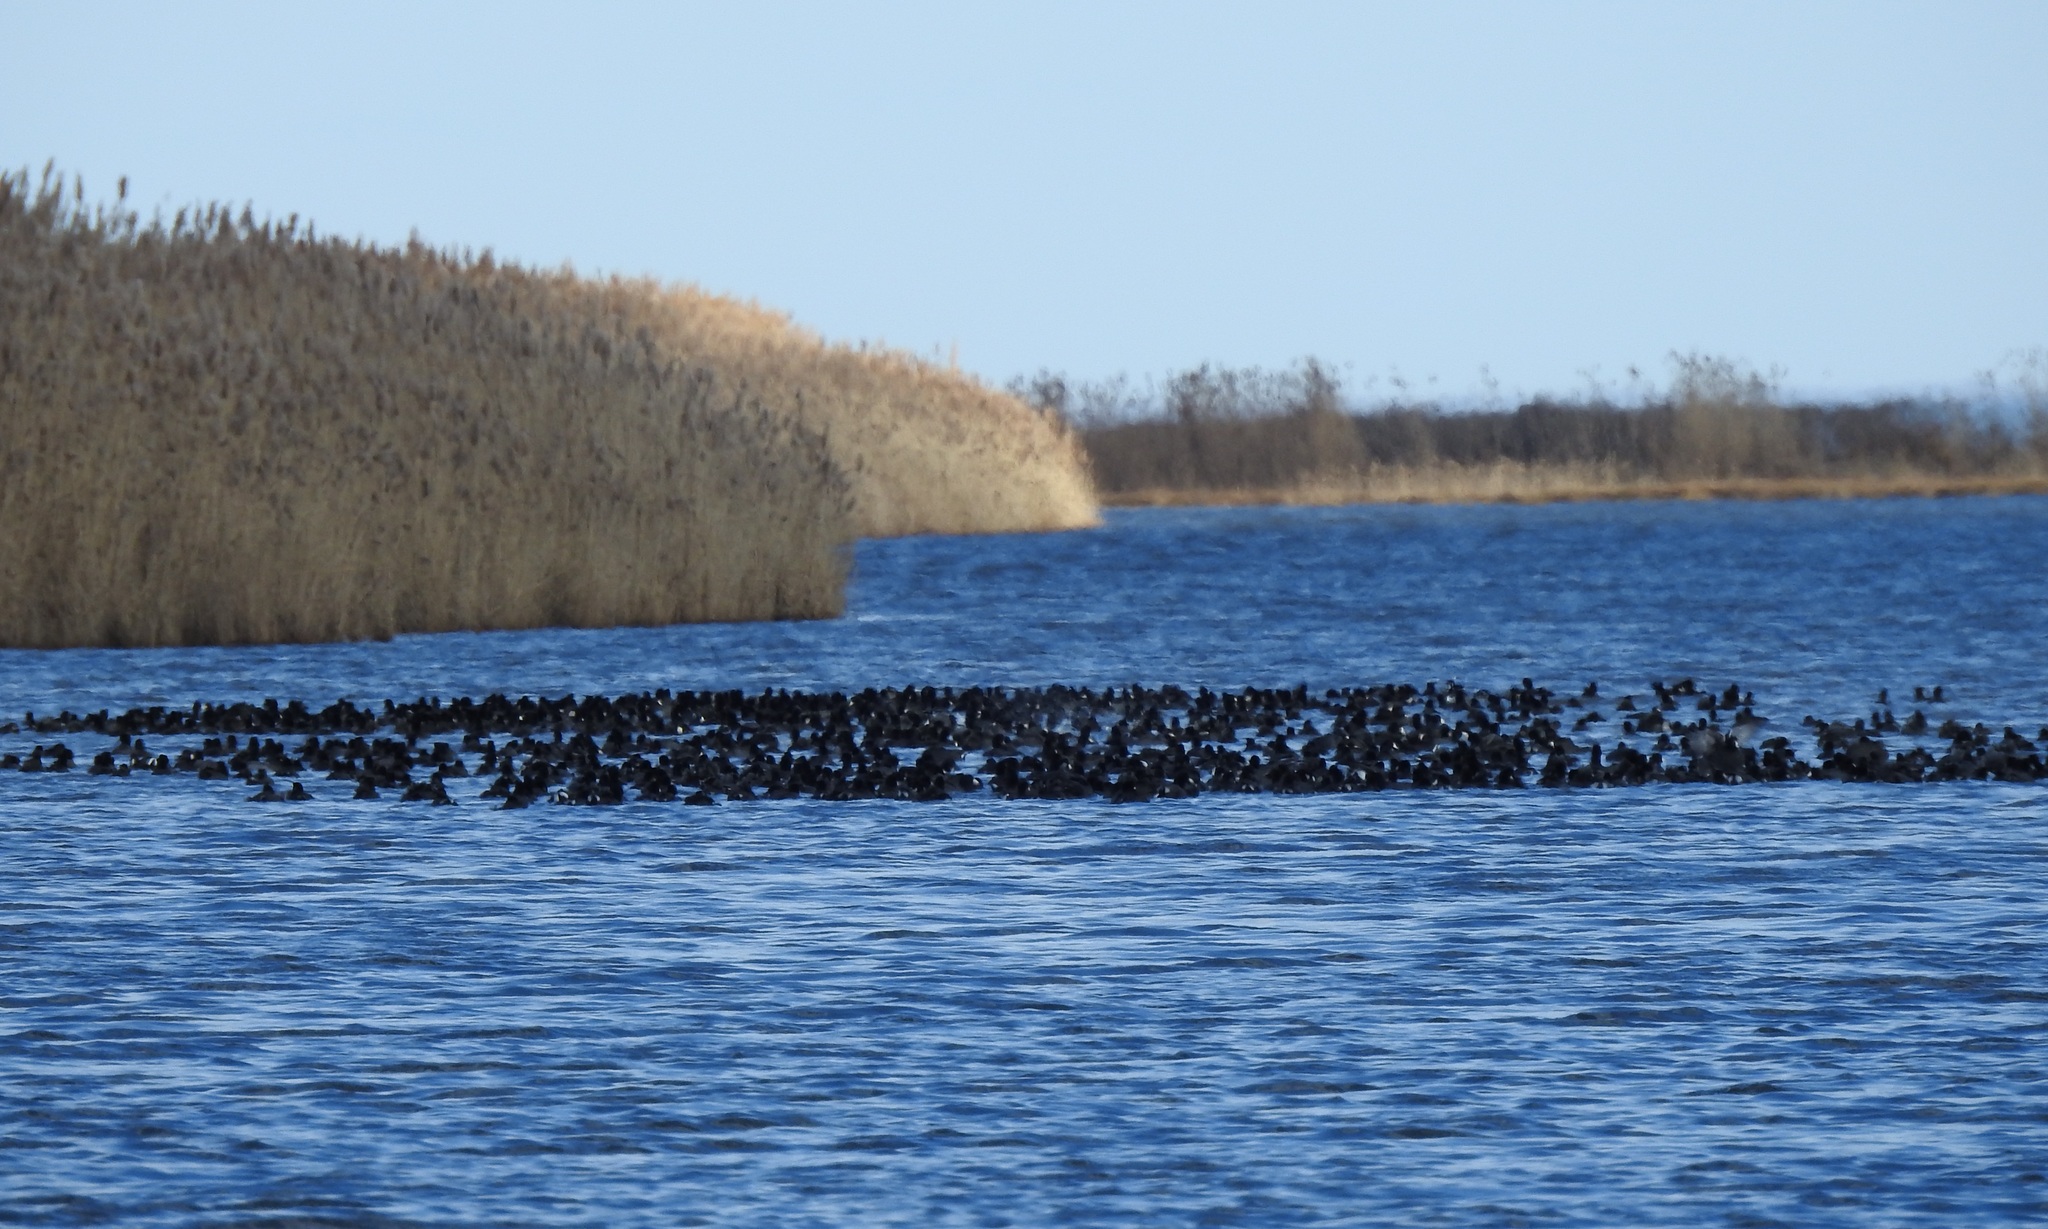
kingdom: Animalia
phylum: Chordata
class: Aves
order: Gruiformes
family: Rallidae
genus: Fulica
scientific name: Fulica americana
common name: American coot
